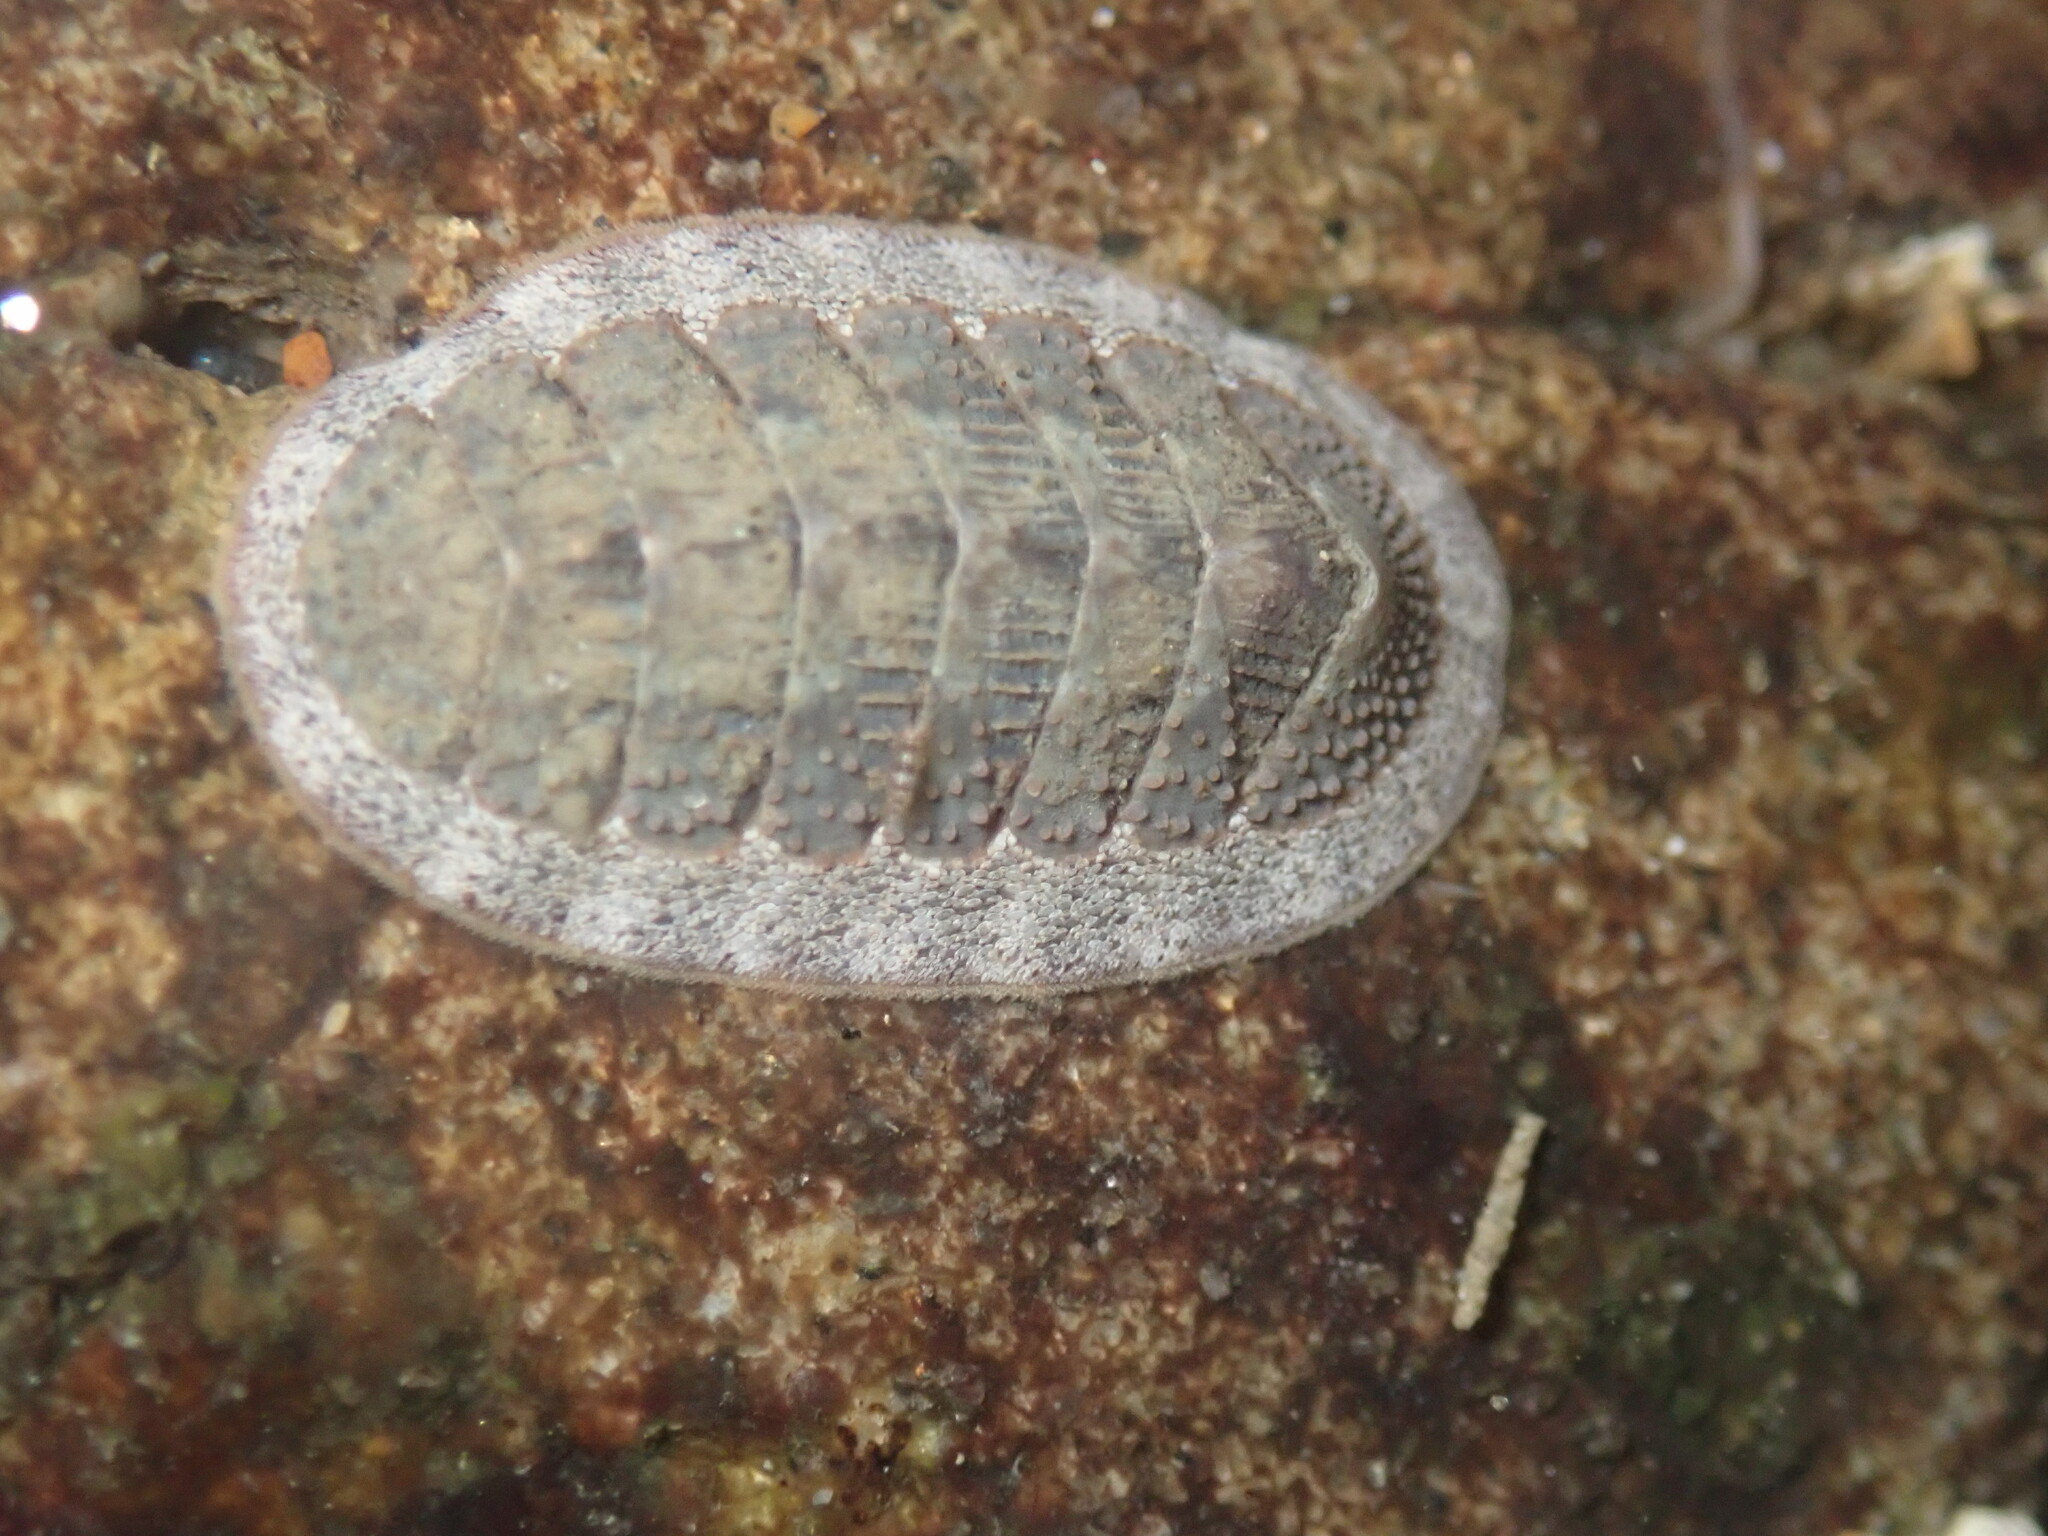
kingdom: Animalia
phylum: Mollusca
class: Polyplacophora
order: Chitonida
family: Ischnochitonidae
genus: Lepidozona
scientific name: Lepidozona cooperi
